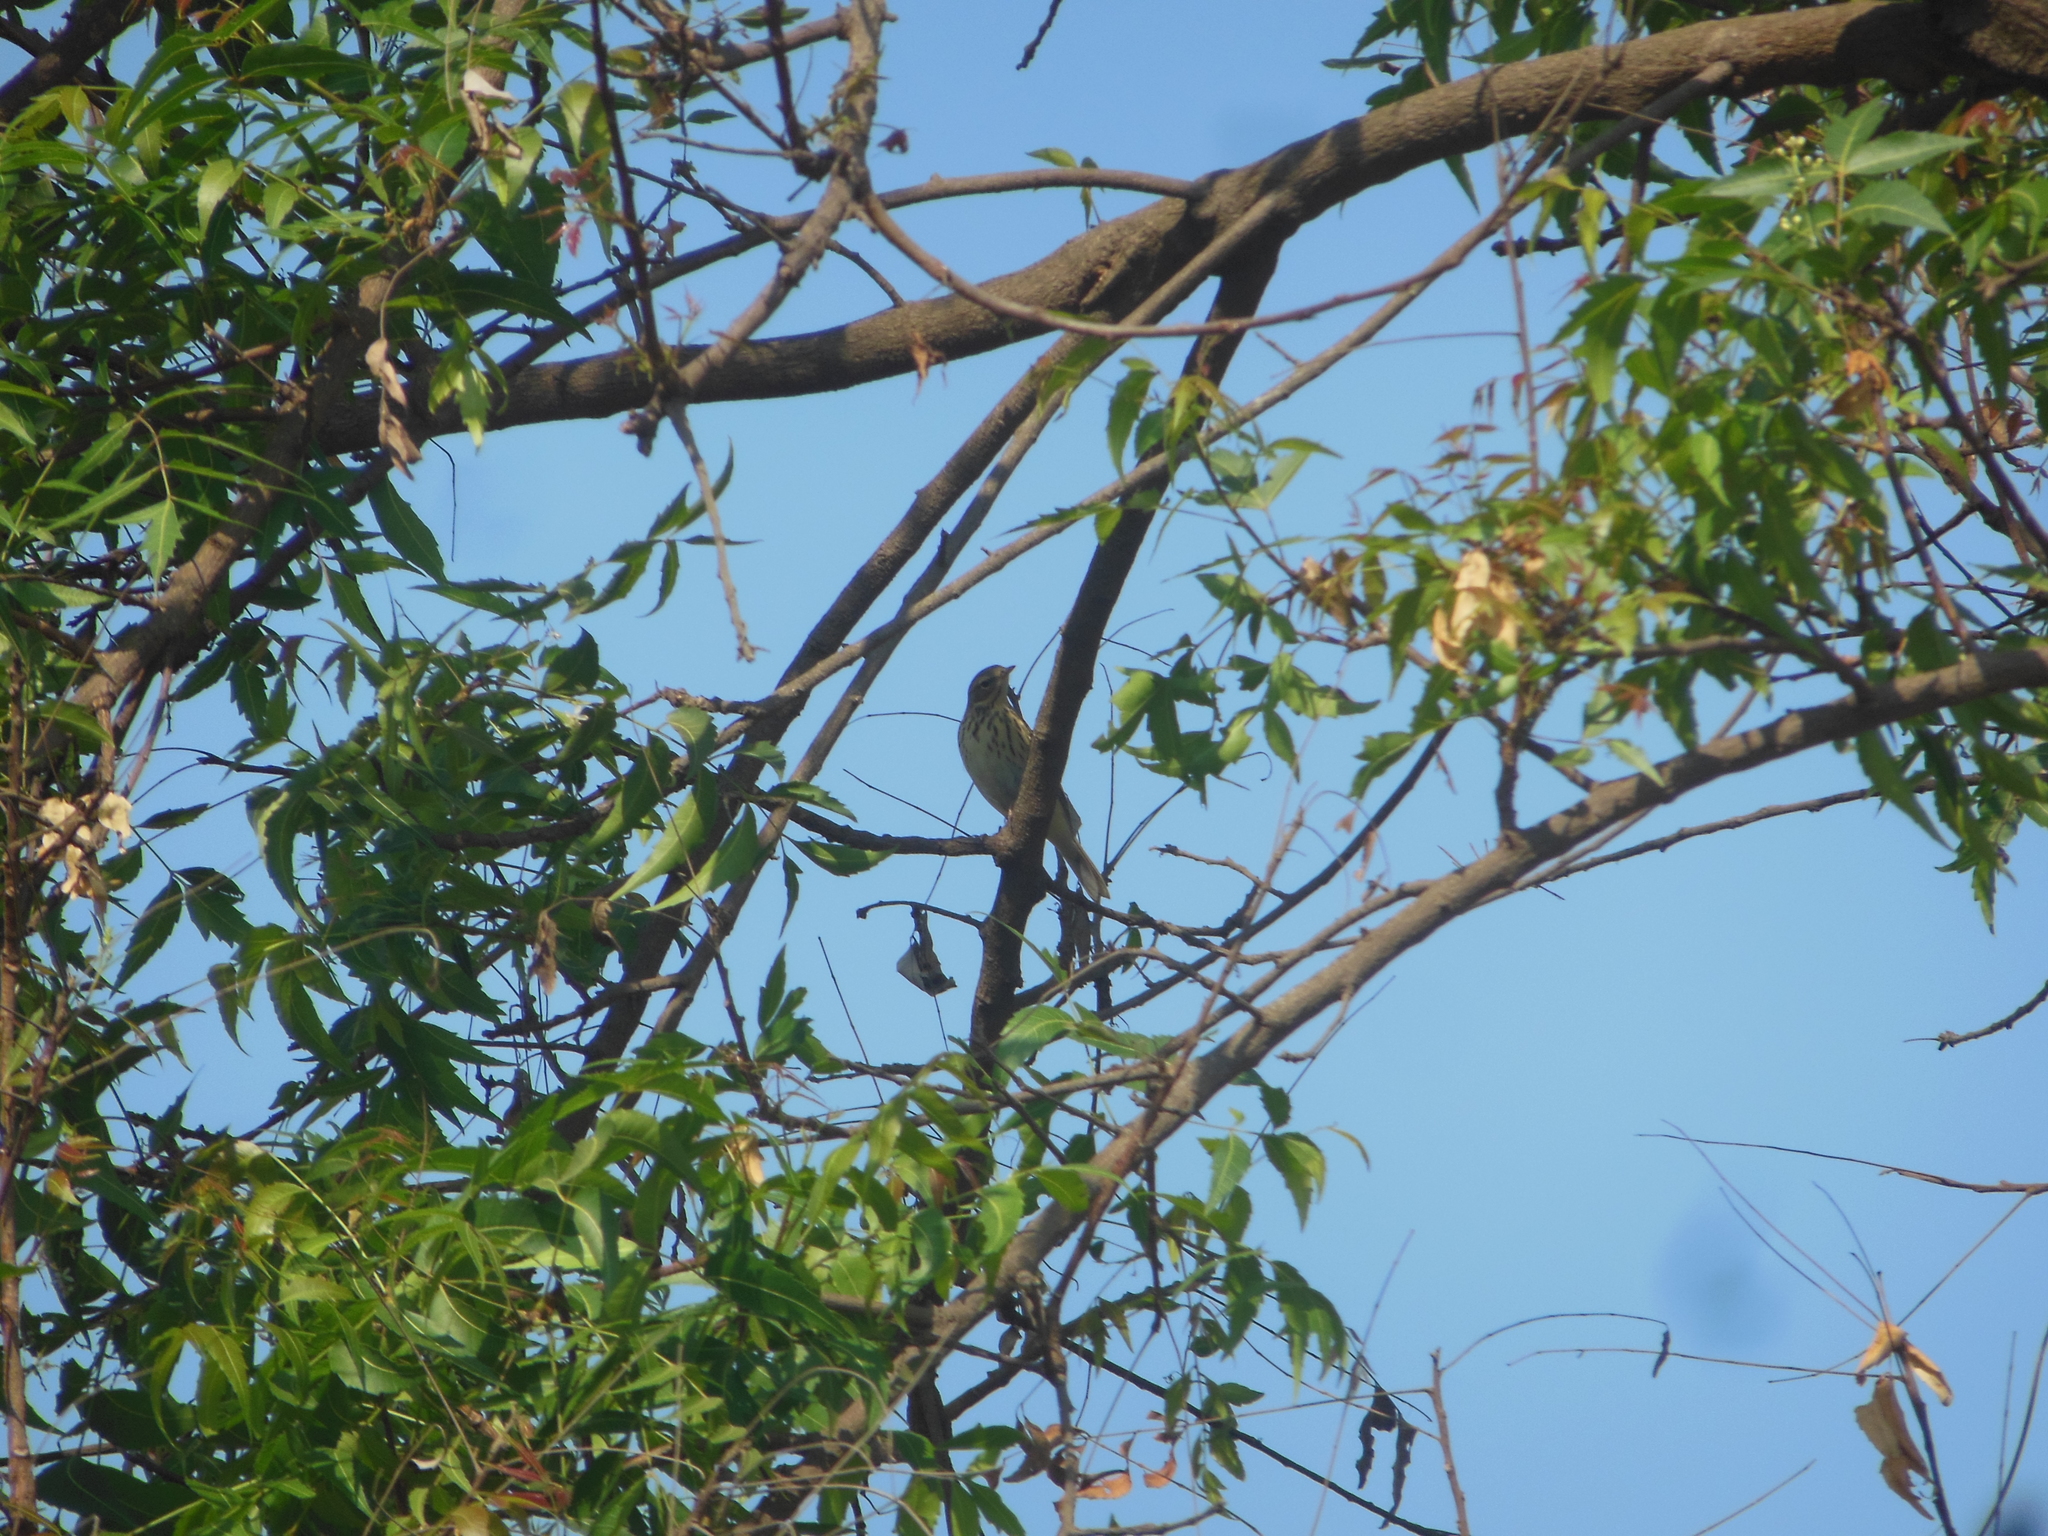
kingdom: Animalia
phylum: Chordata
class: Aves
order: Passeriformes
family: Motacillidae
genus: Anthus
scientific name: Anthus trivialis
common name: Tree pipit
